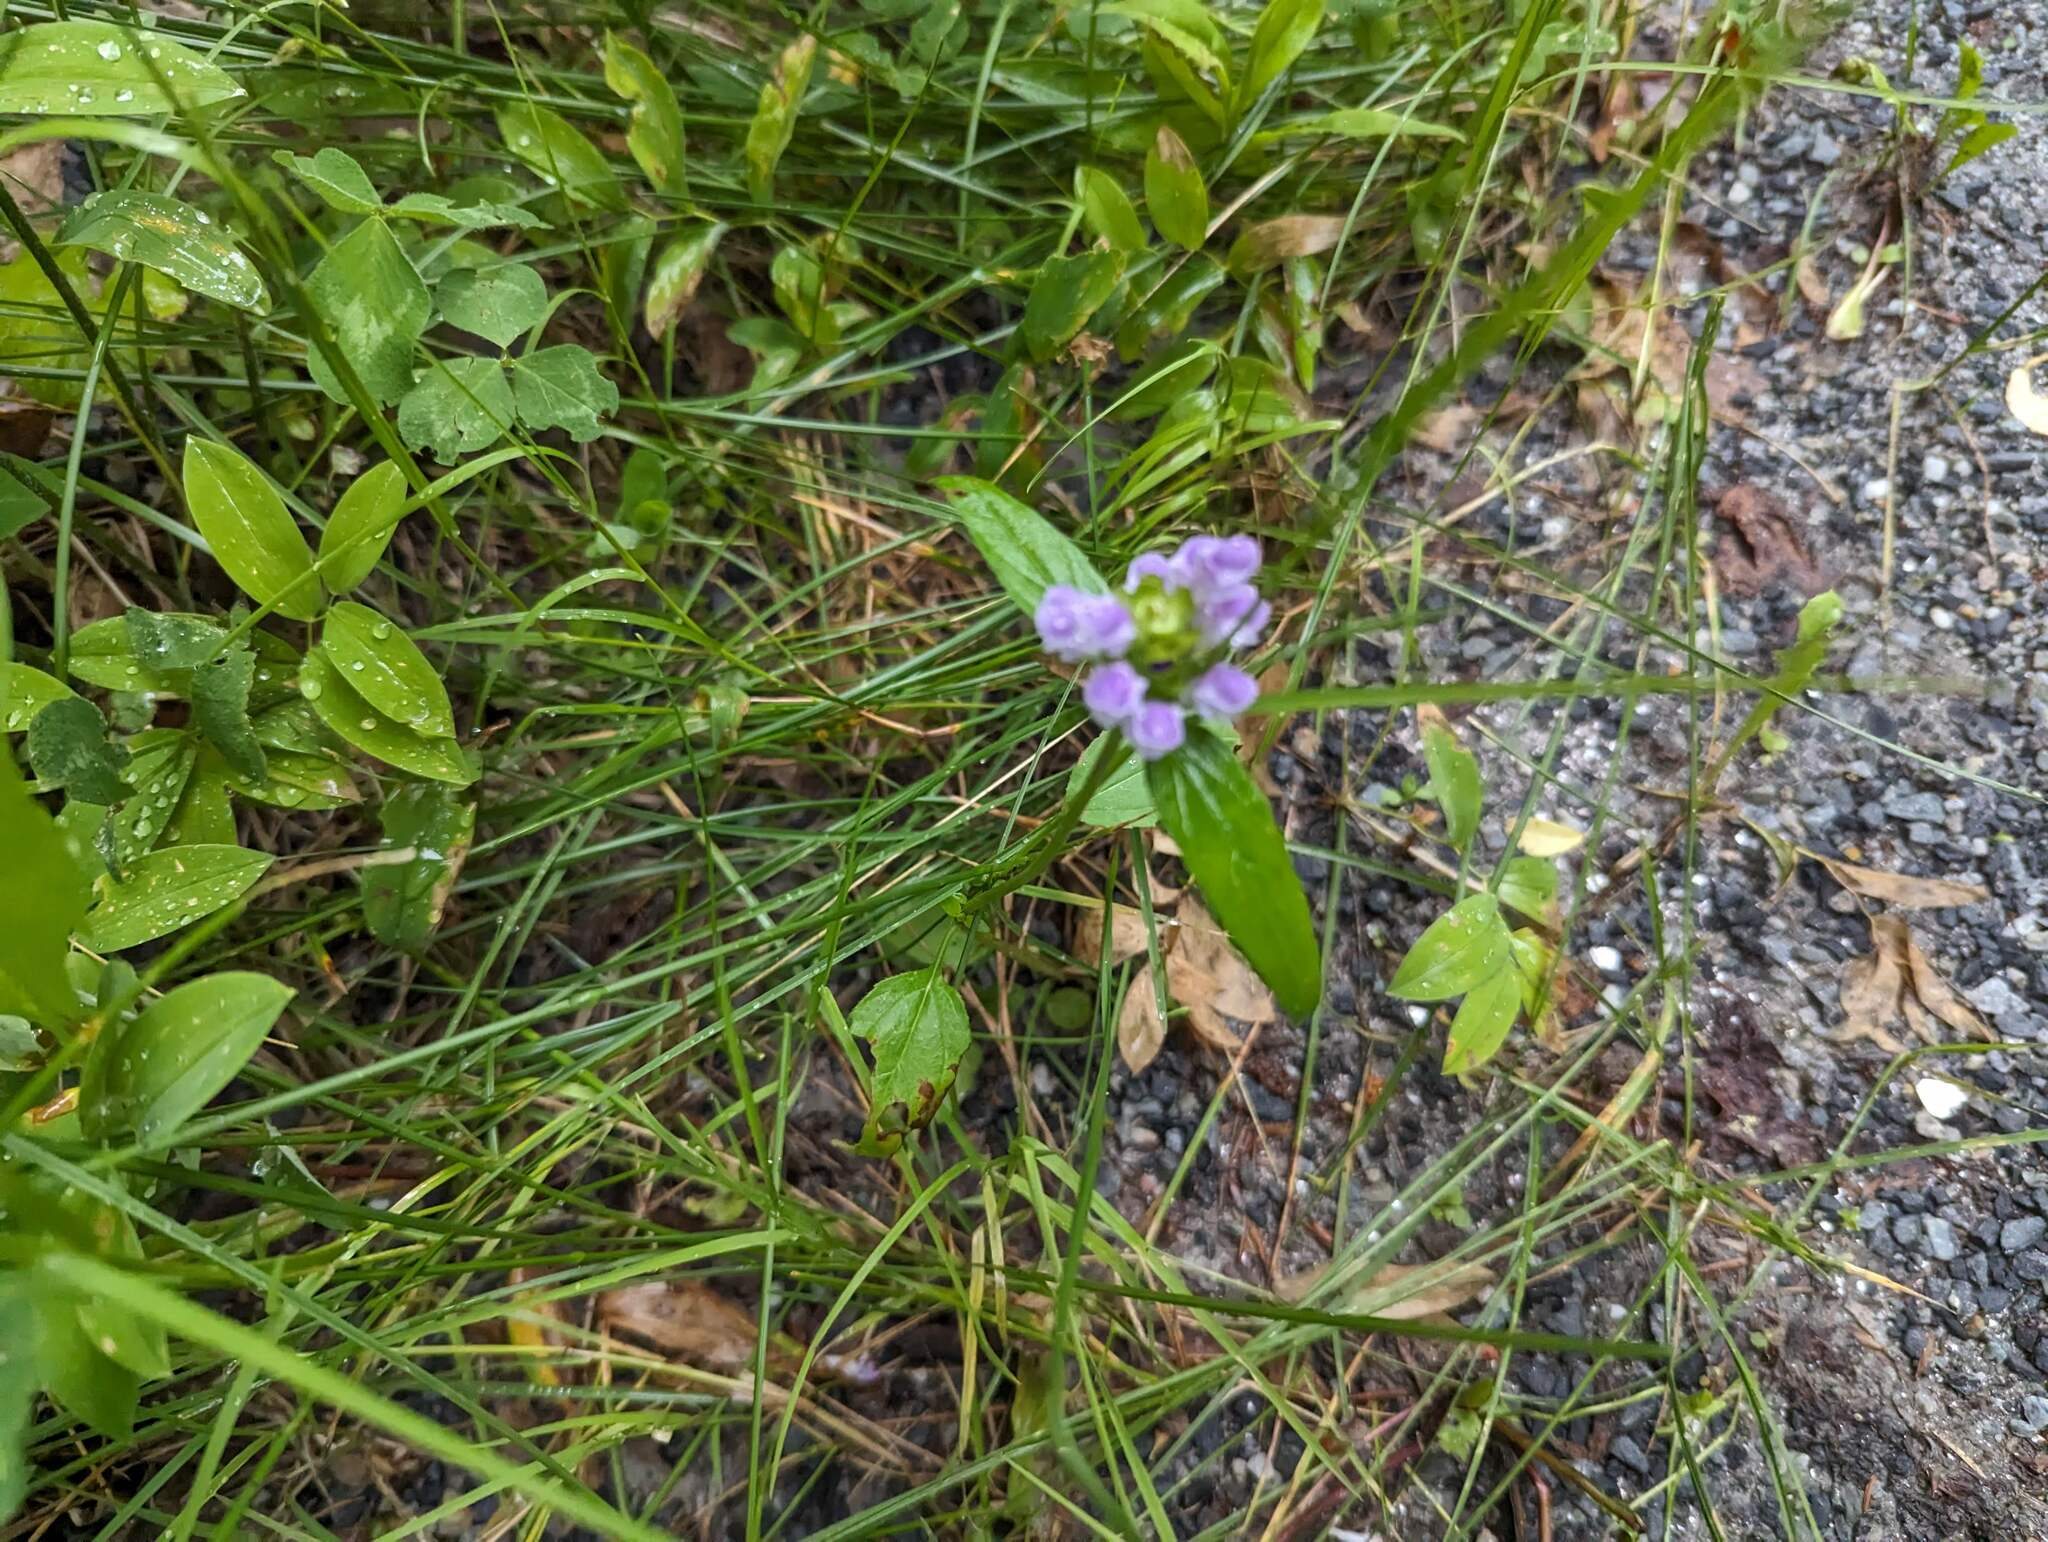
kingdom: Plantae
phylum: Tracheophyta
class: Magnoliopsida
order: Lamiales
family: Lamiaceae
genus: Prunella
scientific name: Prunella vulgaris
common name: Heal-all
